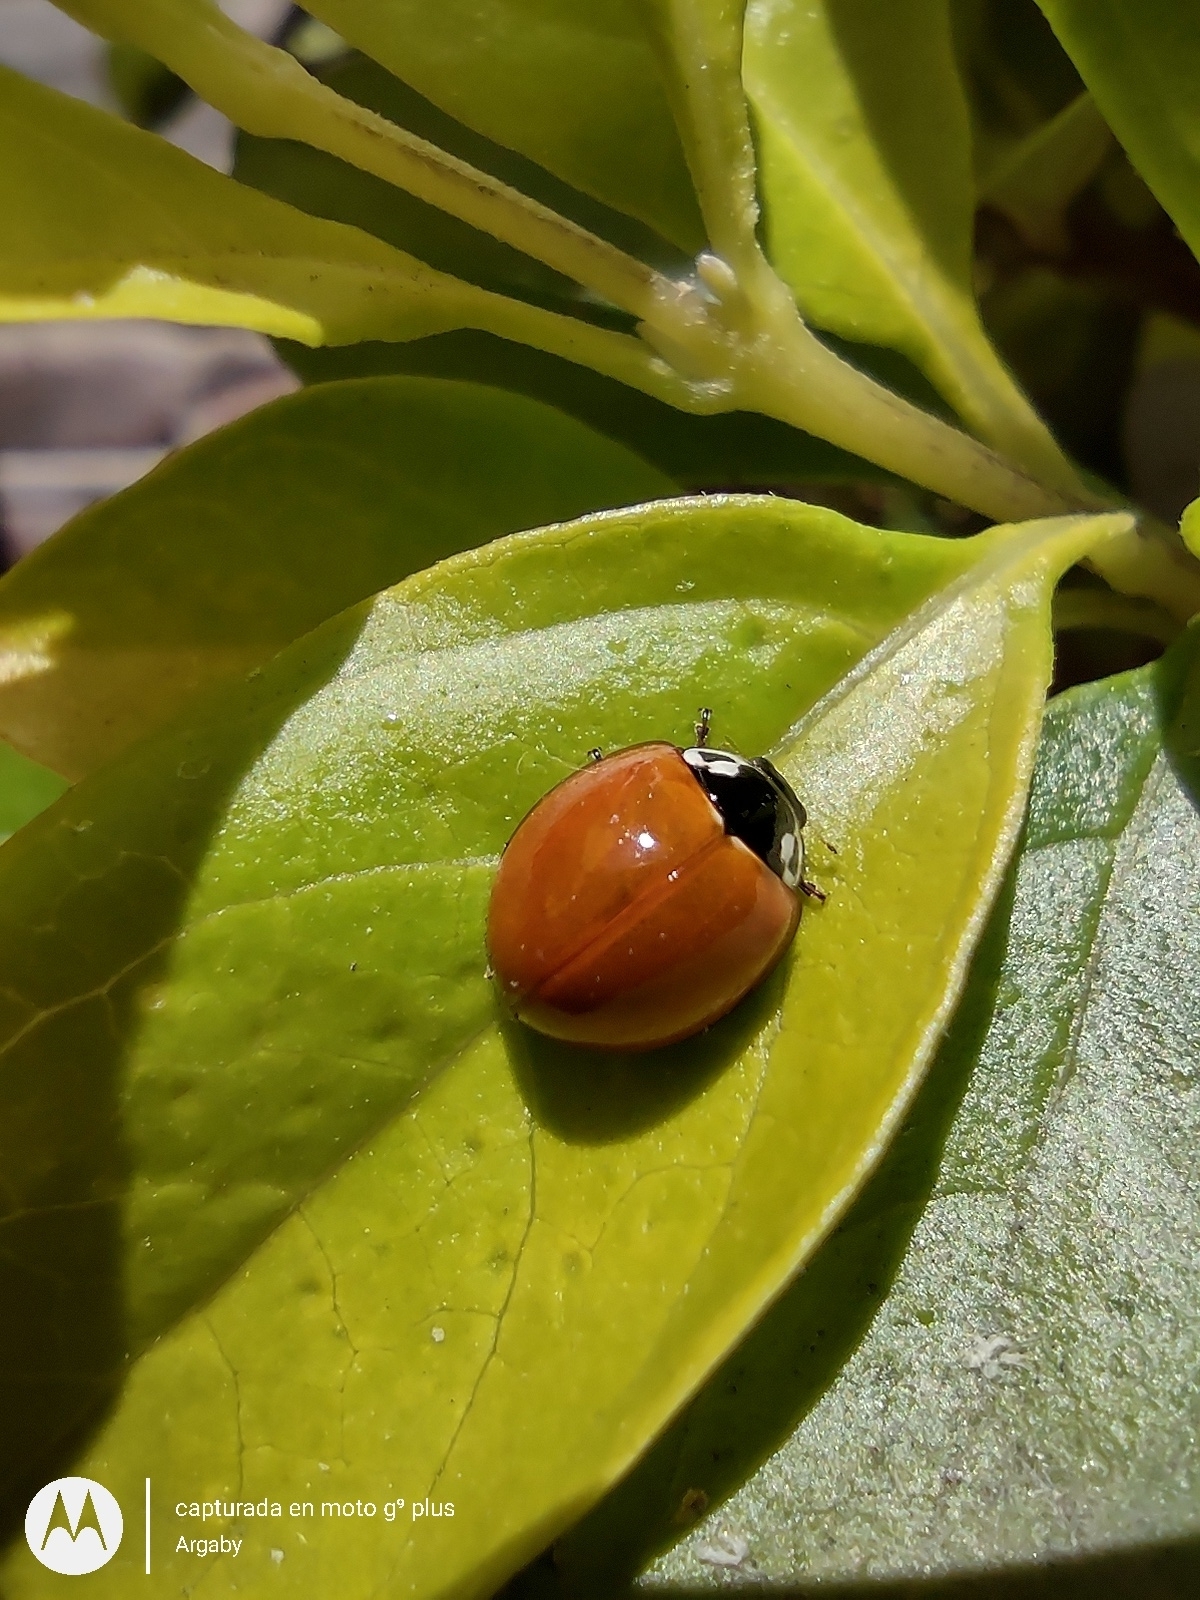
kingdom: Animalia
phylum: Arthropoda
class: Insecta
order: Coleoptera
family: Coccinellidae
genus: Cycloneda
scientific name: Cycloneda sanguinea
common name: Ladybird beetle
